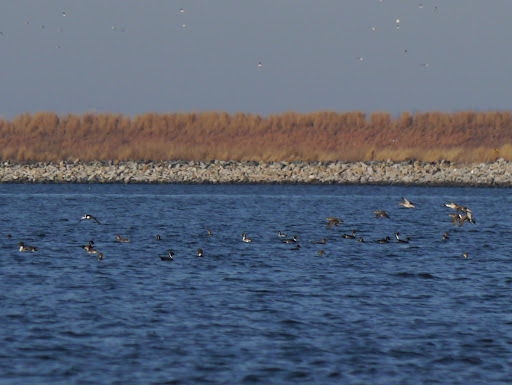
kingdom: Animalia
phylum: Chordata
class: Aves
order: Anseriformes
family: Anatidae
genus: Anas
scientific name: Anas acuta
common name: Northern pintail
